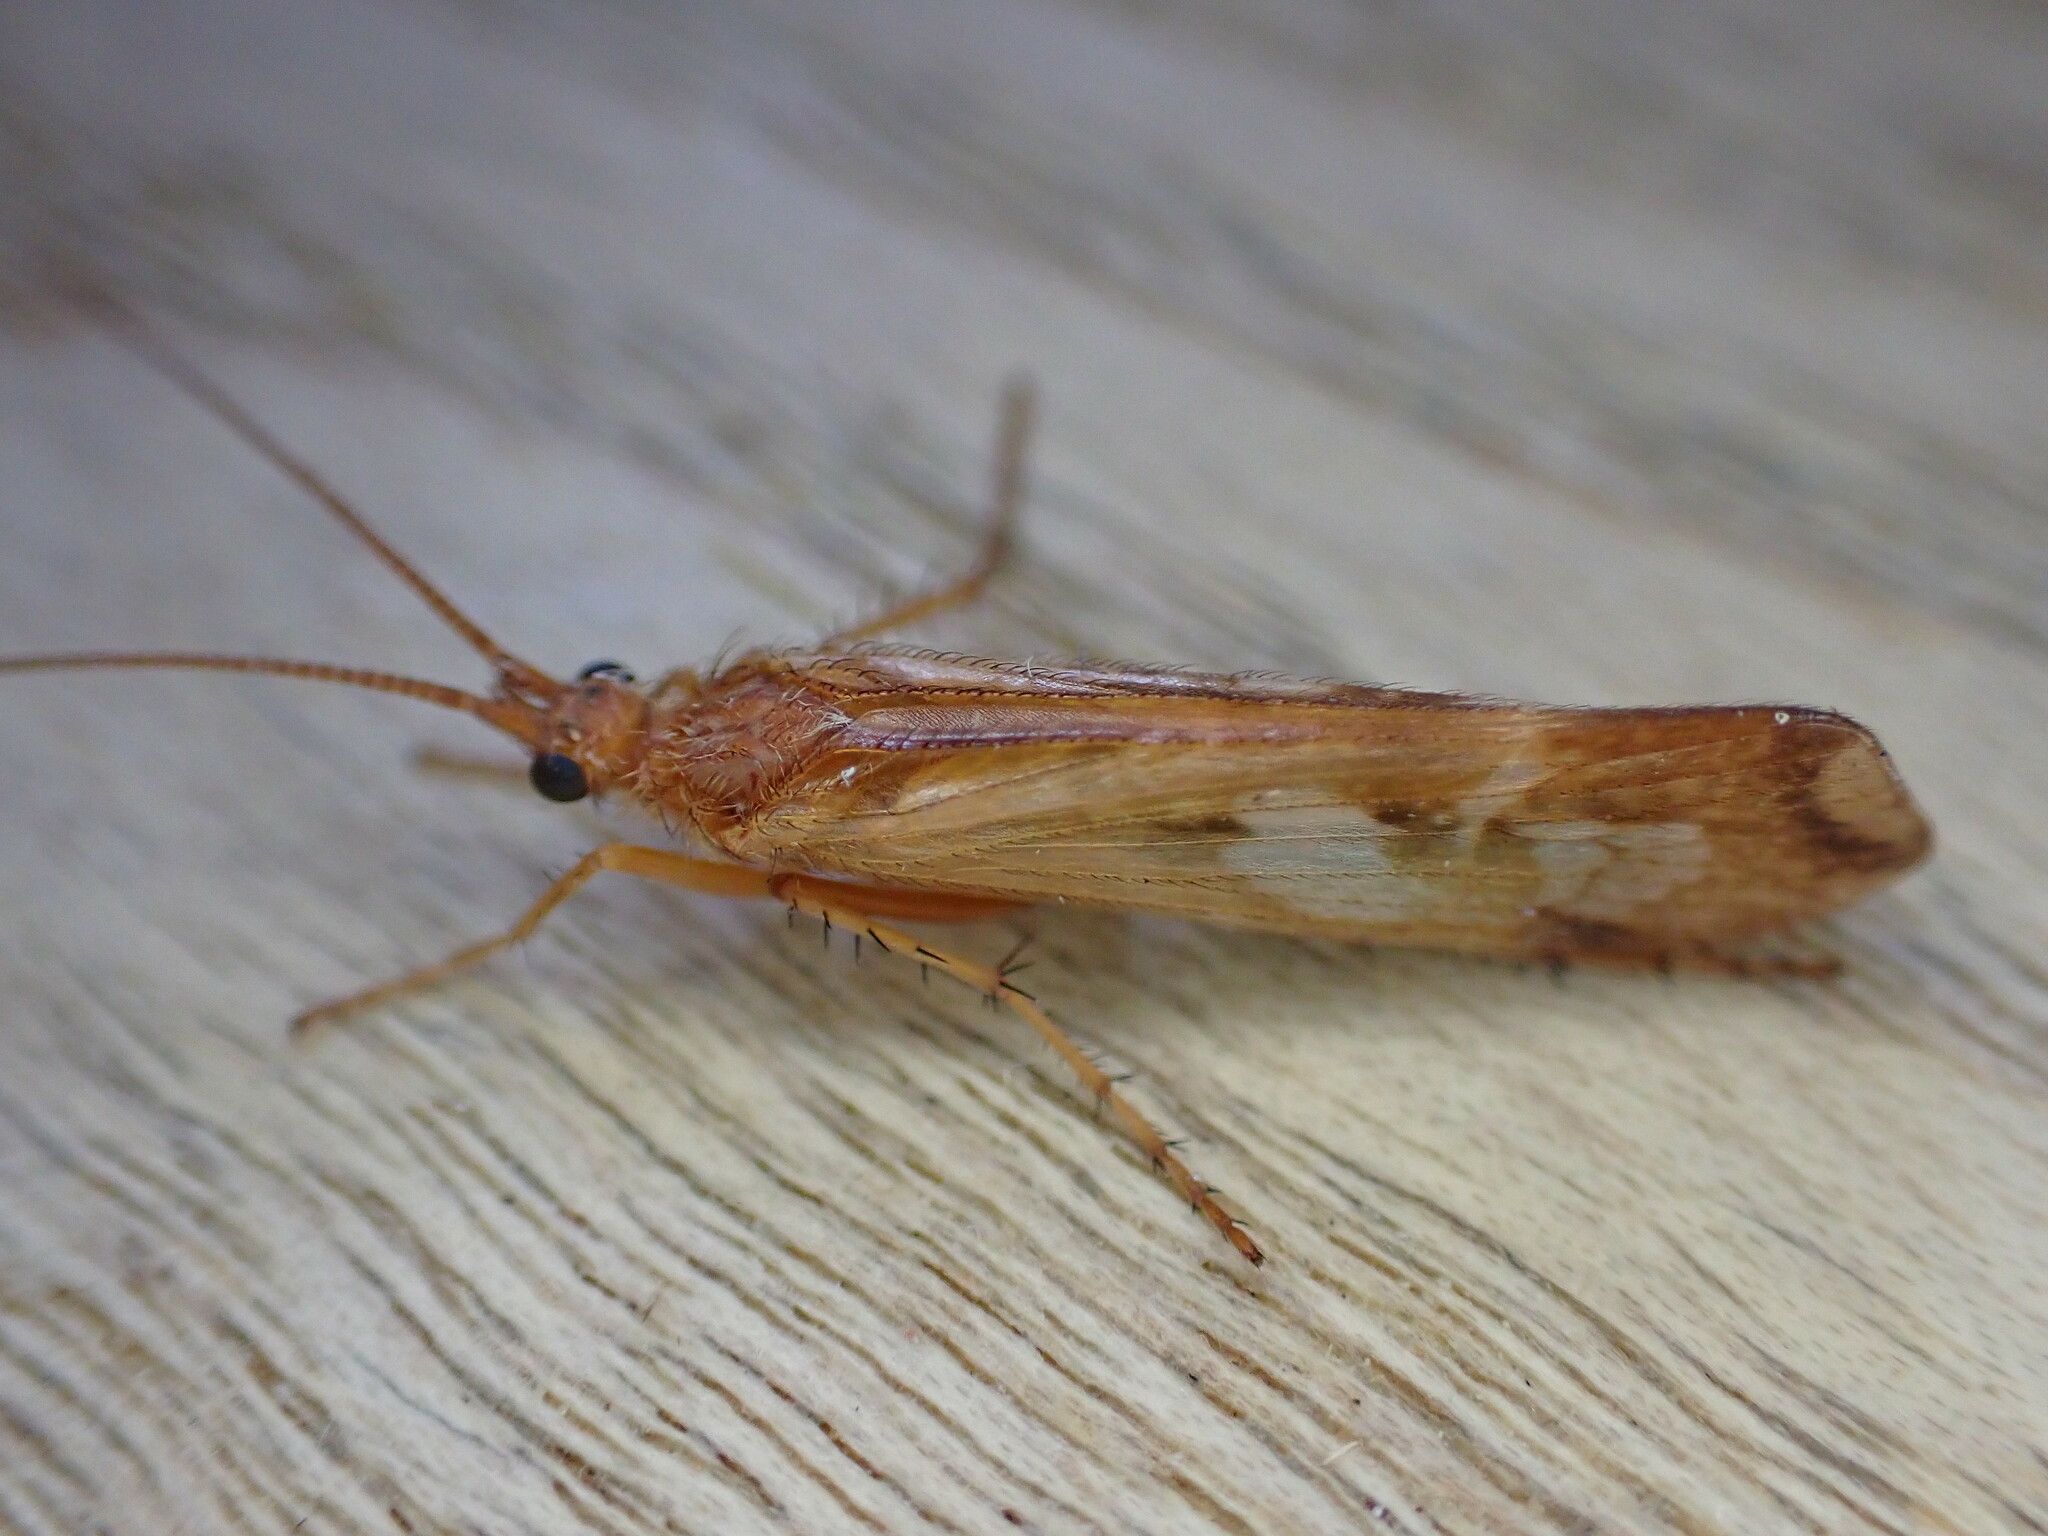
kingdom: Animalia
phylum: Arthropoda
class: Insecta
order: Trichoptera
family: Limnephilidae
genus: Limnephilus
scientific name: Limnephilus lunatus
